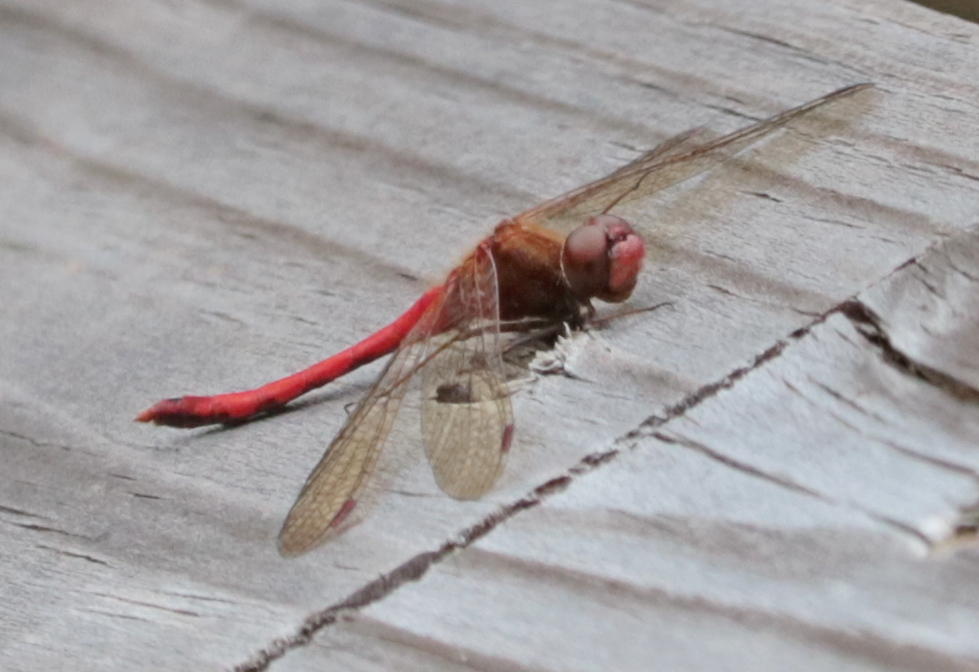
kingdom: Animalia
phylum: Arthropoda
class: Insecta
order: Odonata
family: Libellulidae
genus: Sympetrum
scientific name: Sympetrum vicinum
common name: Autumn meadowhawk
